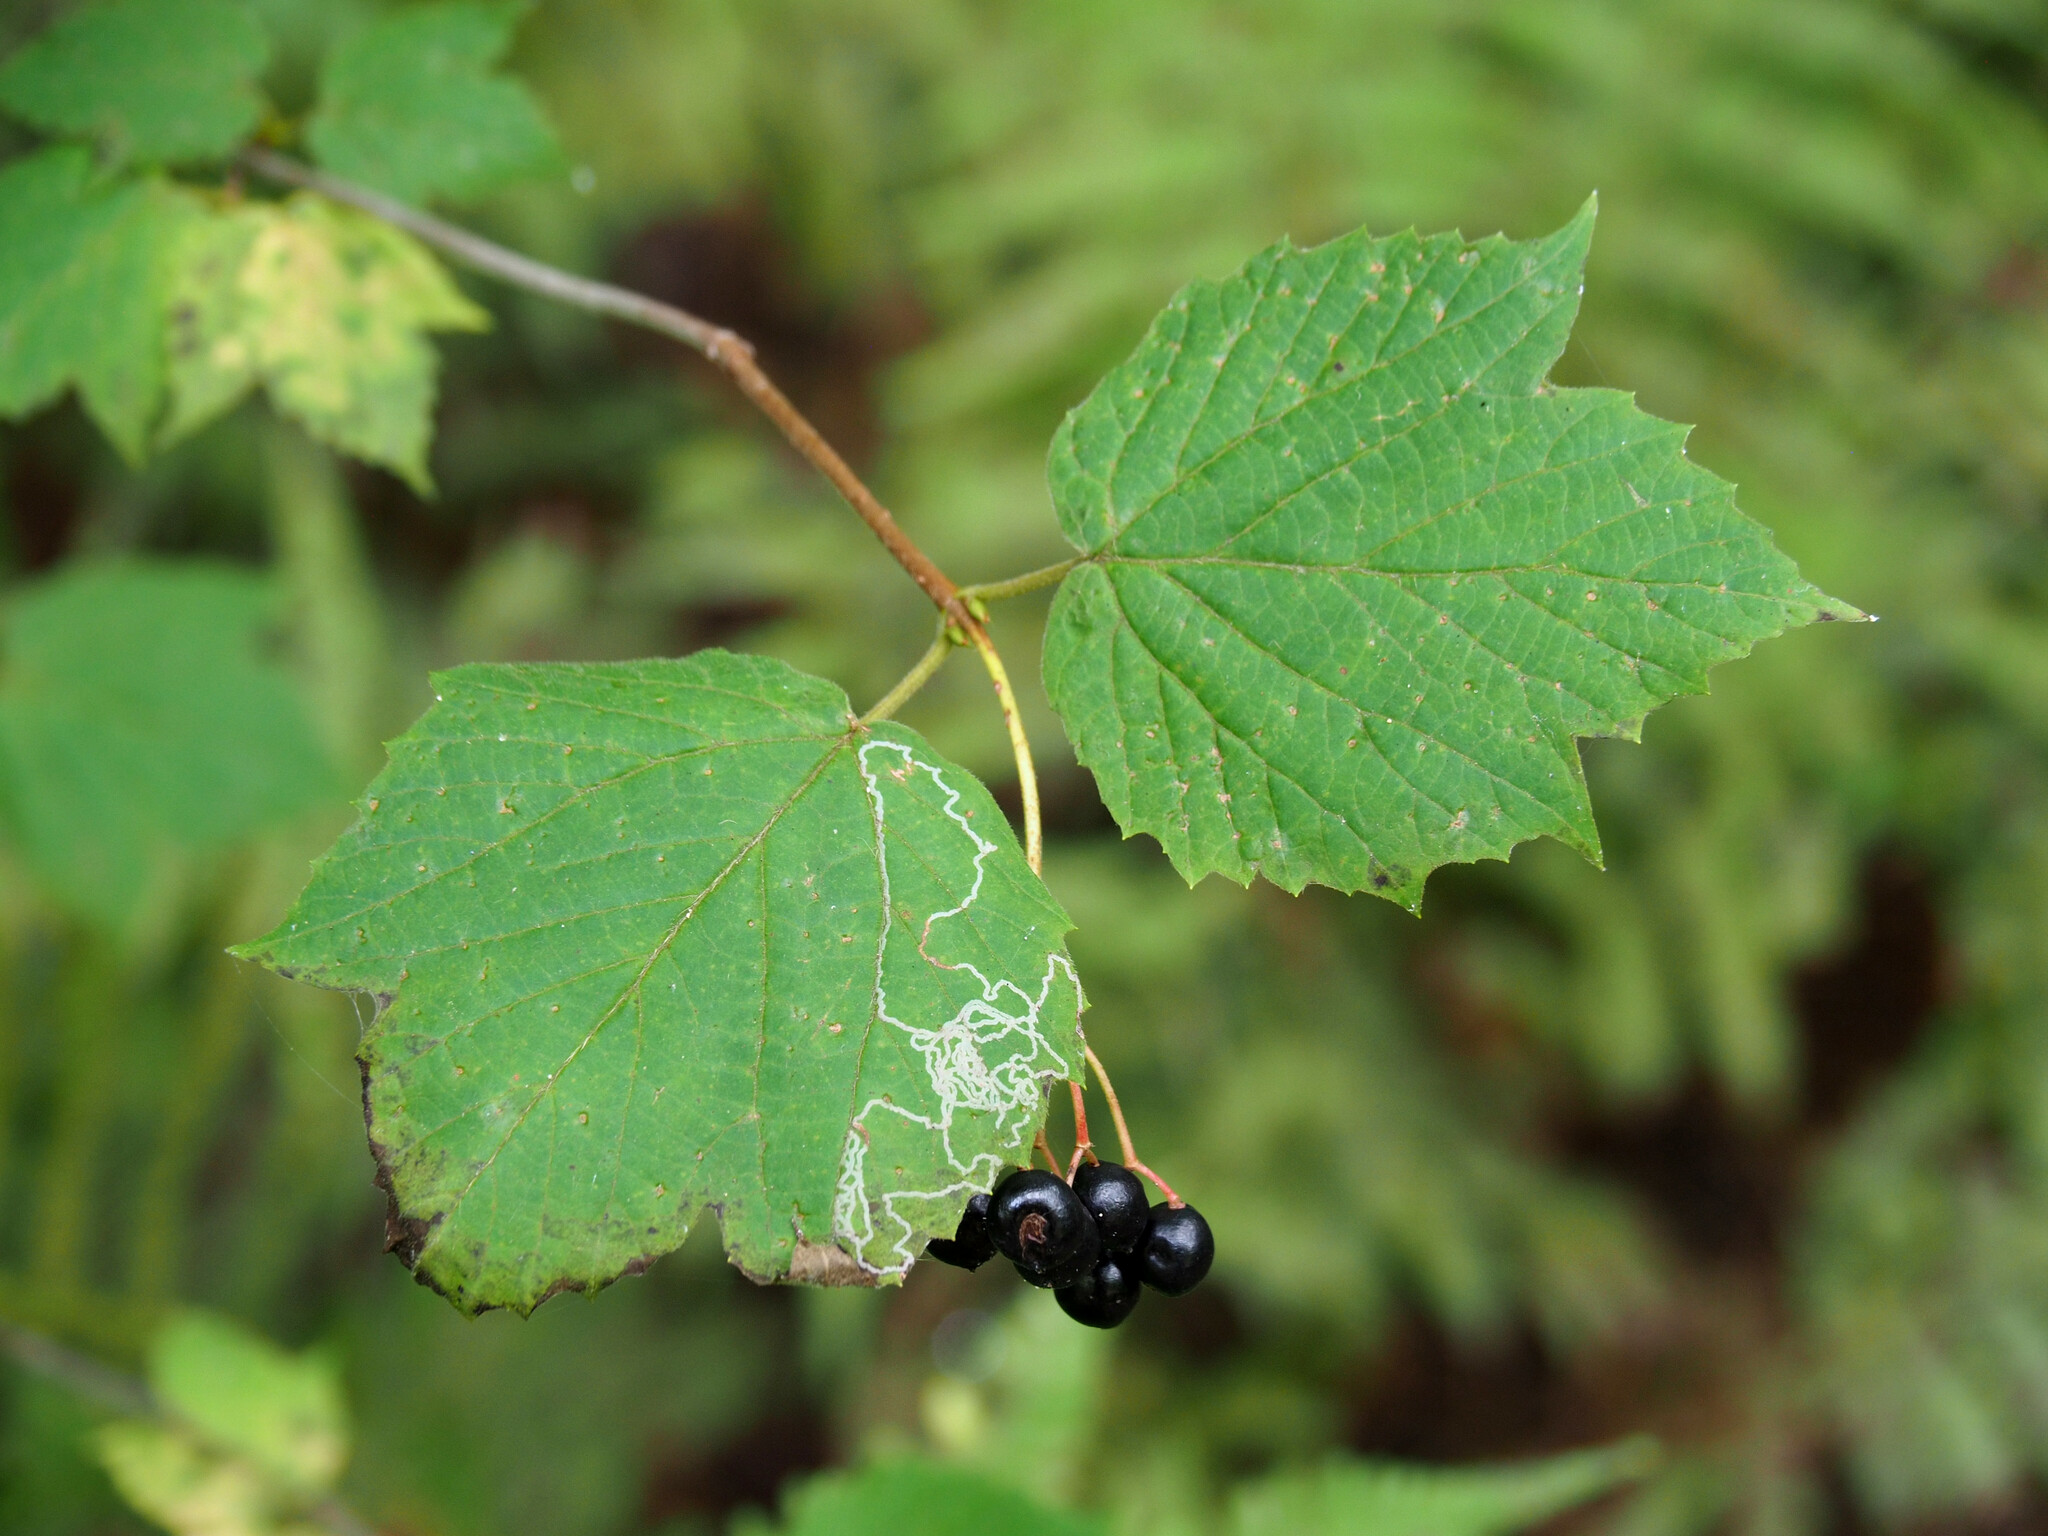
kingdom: Animalia
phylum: Arthropoda
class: Insecta
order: Lepidoptera
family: Gracillariidae
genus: Marmara
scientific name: Marmara viburnella
